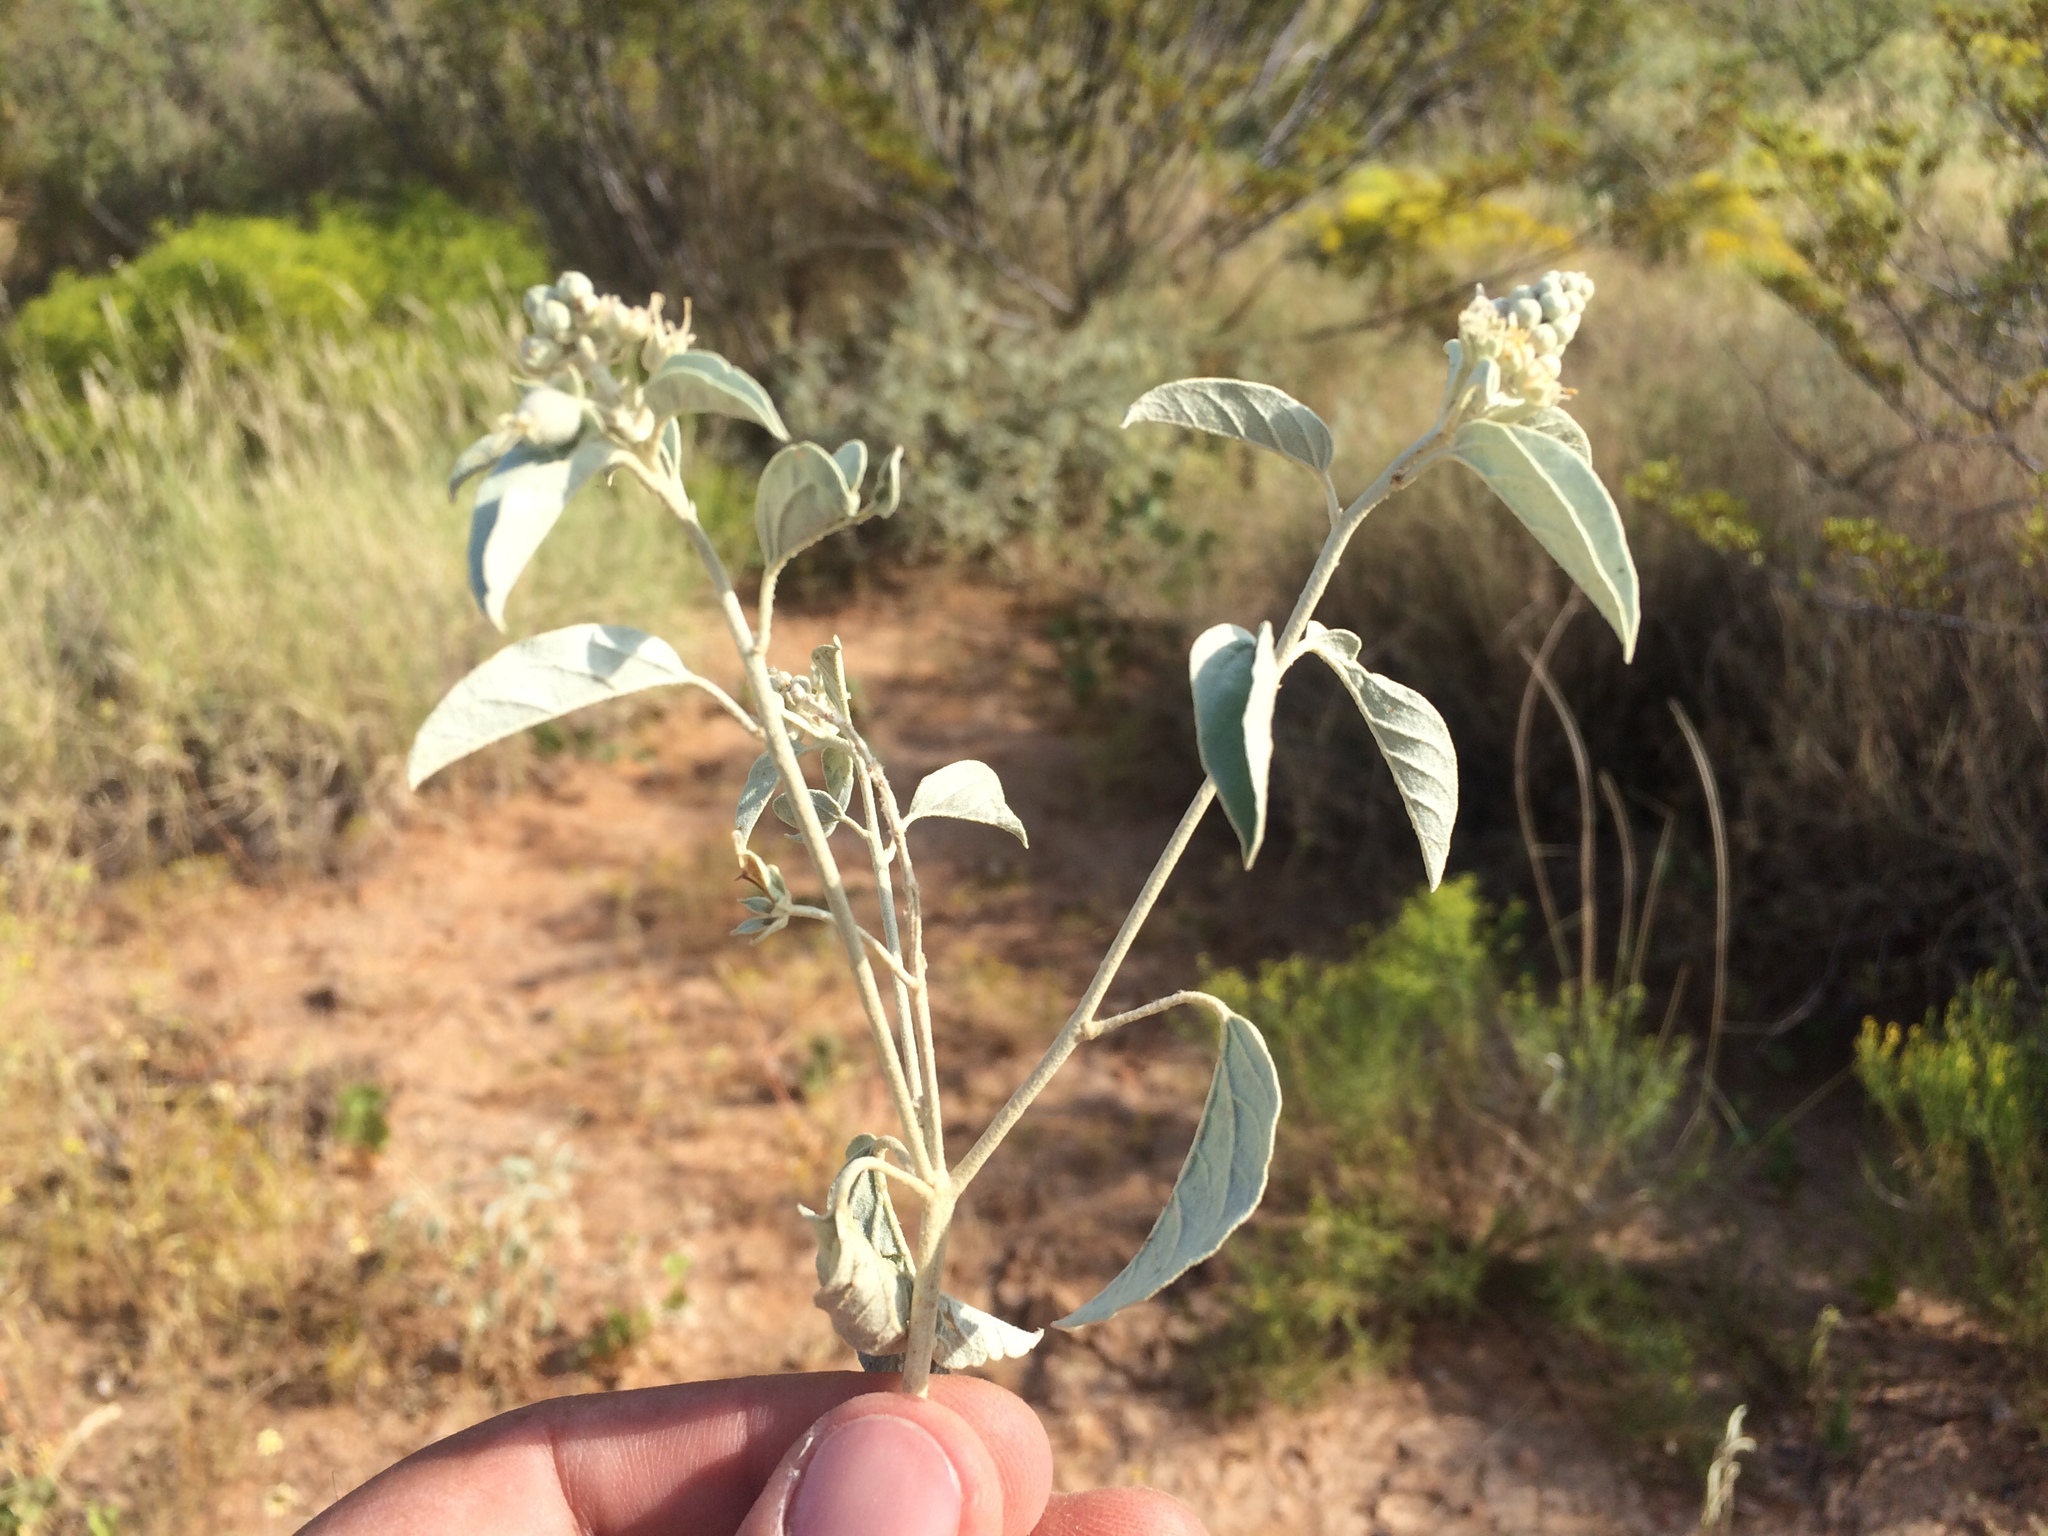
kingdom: Plantae
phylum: Tracheophyta
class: Magnoliopsida
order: Malpighiales
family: Euphorbiaceae
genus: Croton
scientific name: Croton pottsii
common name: Leatherweed
